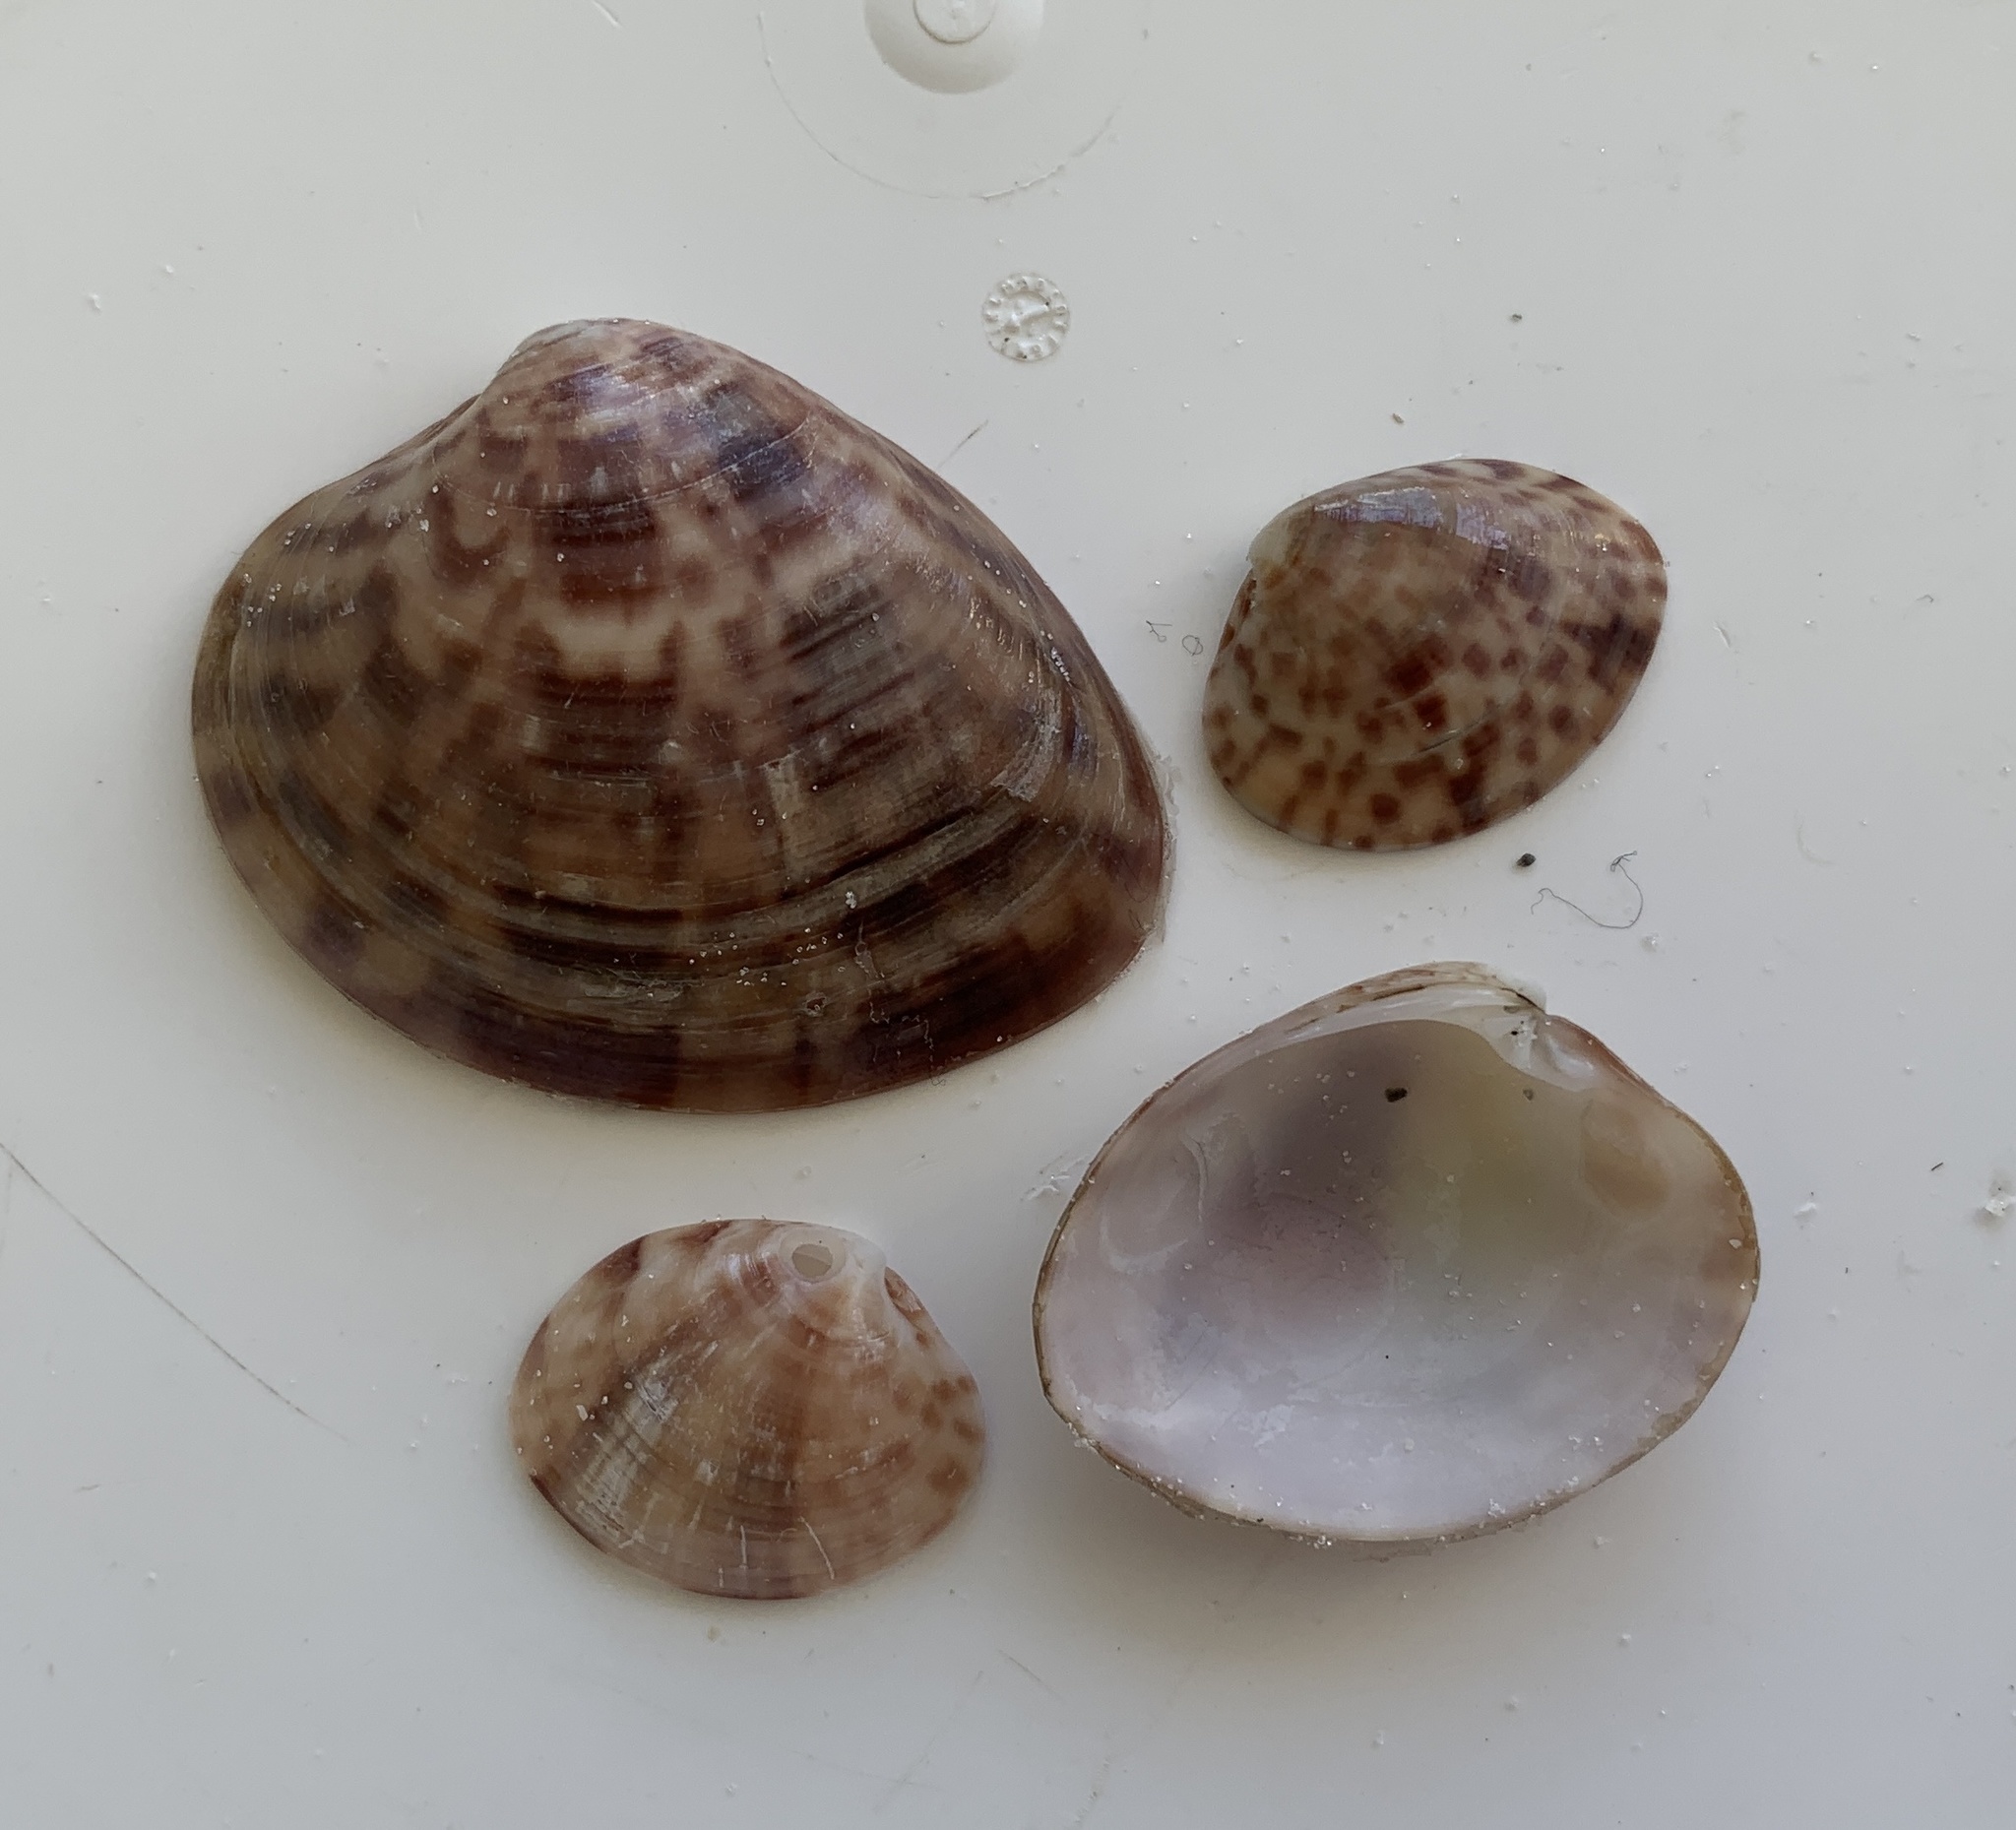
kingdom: Animalia
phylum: Mollusca
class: Bivalvia
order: Venerida
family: Veneridae
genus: Megapitaria
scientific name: Megapitaria maculata
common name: Calico clam
